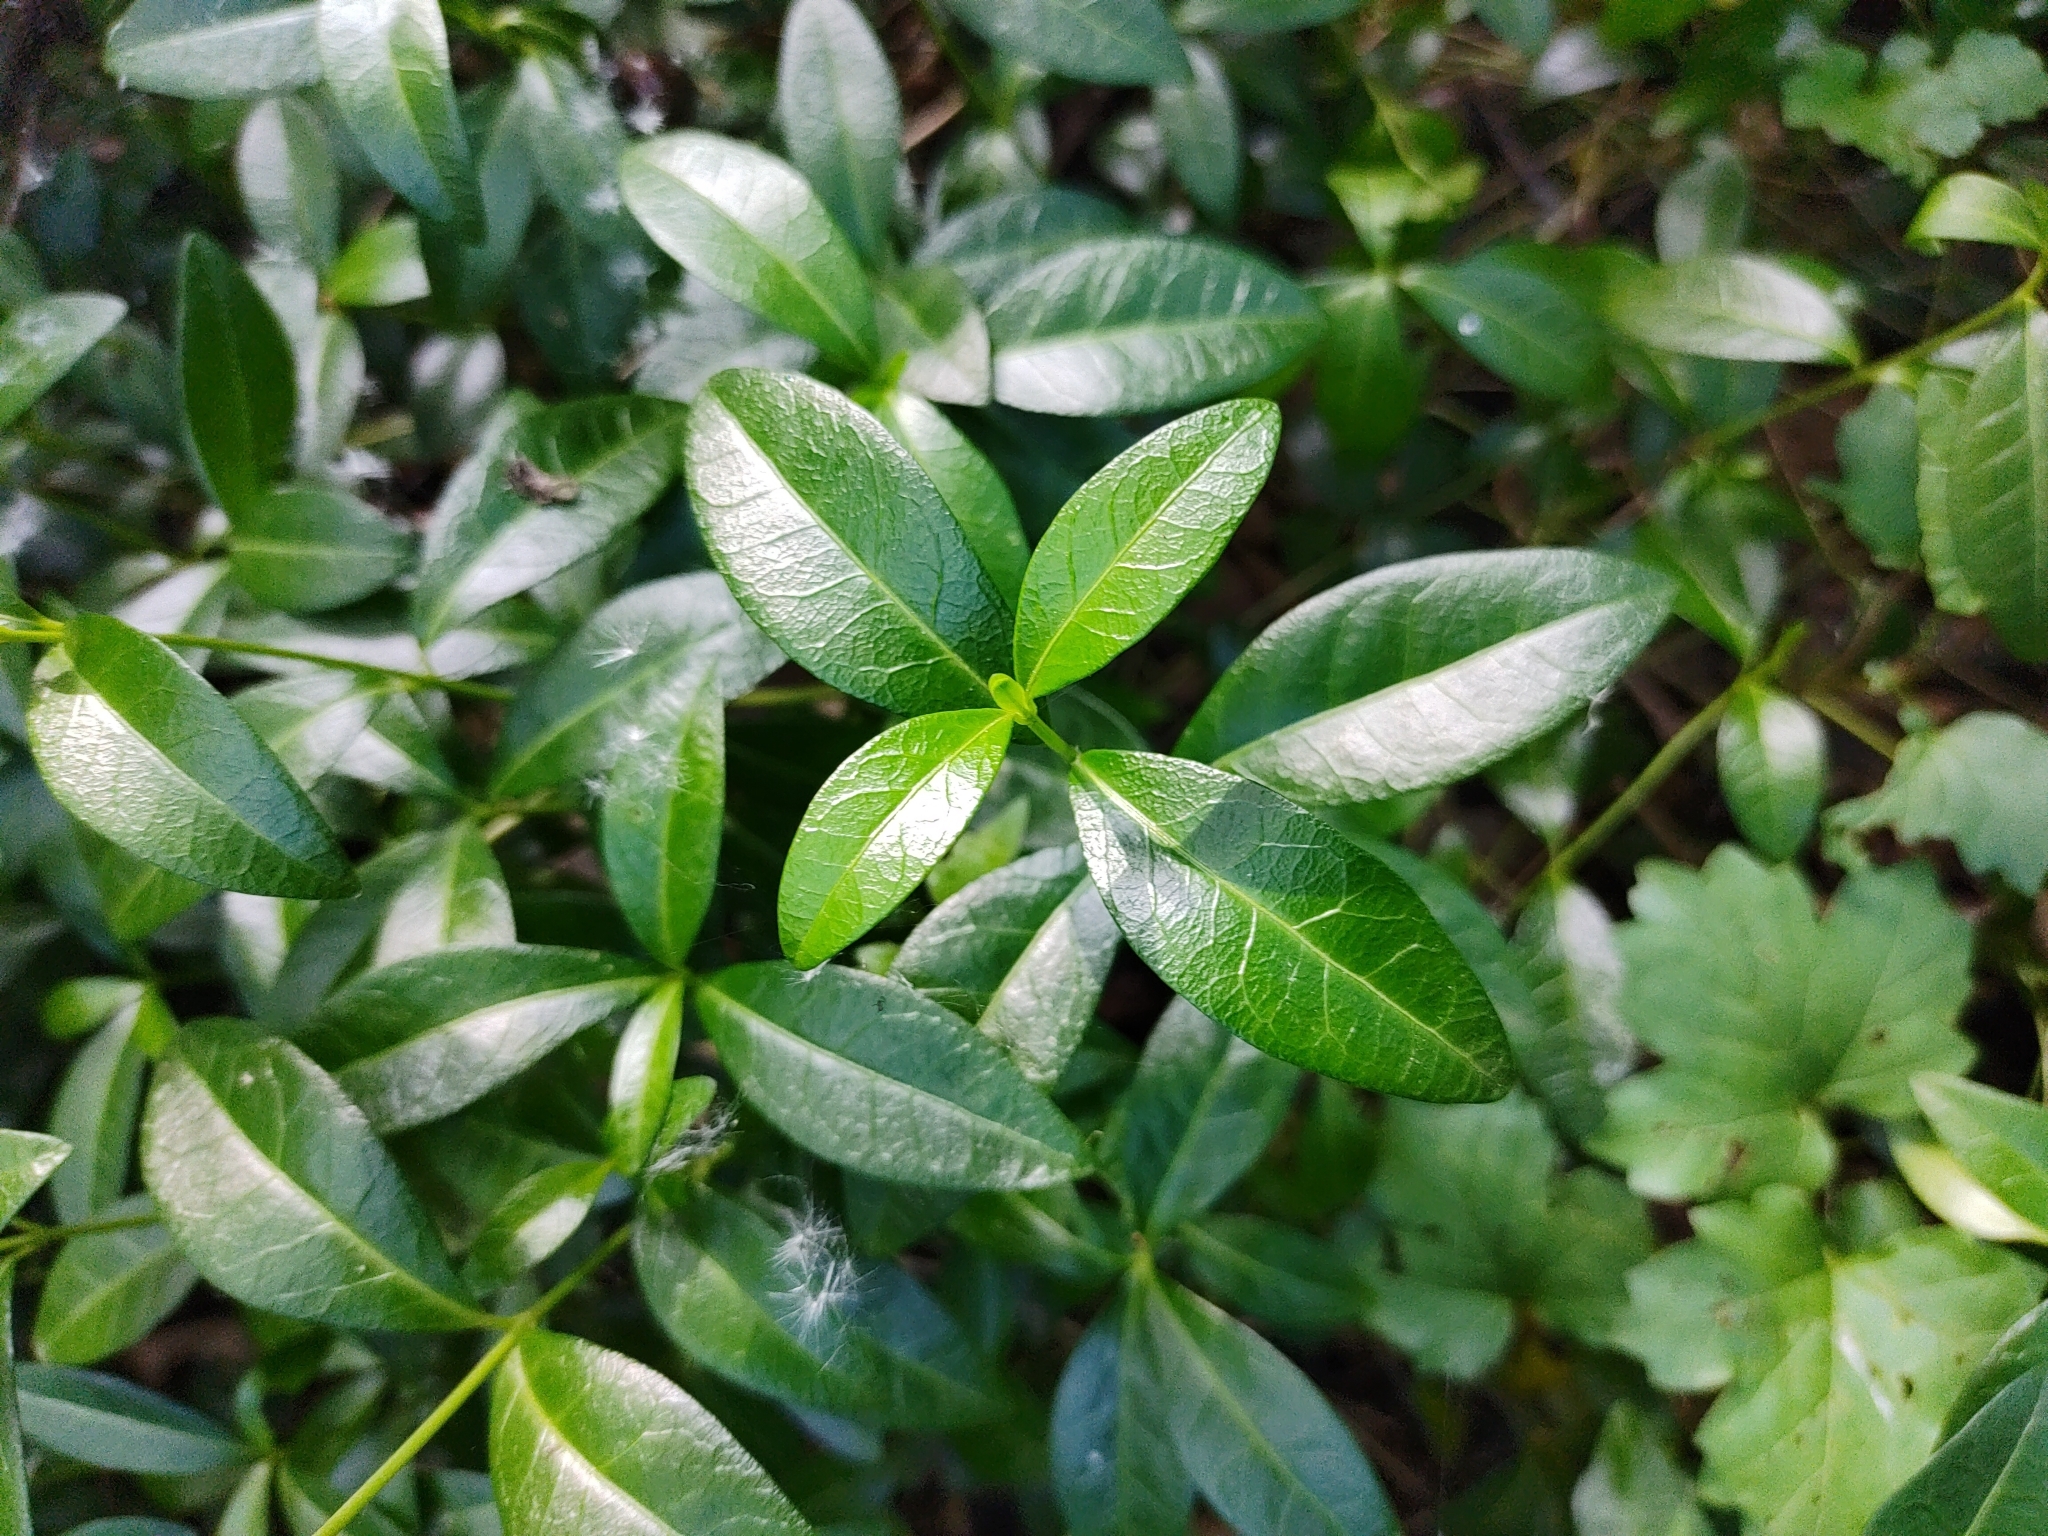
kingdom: Plantae
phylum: Tracheophyta
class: Magnoliopsida
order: Gentianales
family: Apocynaceae
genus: Vinca
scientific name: Vinca minor
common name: Lesser periwinkle
